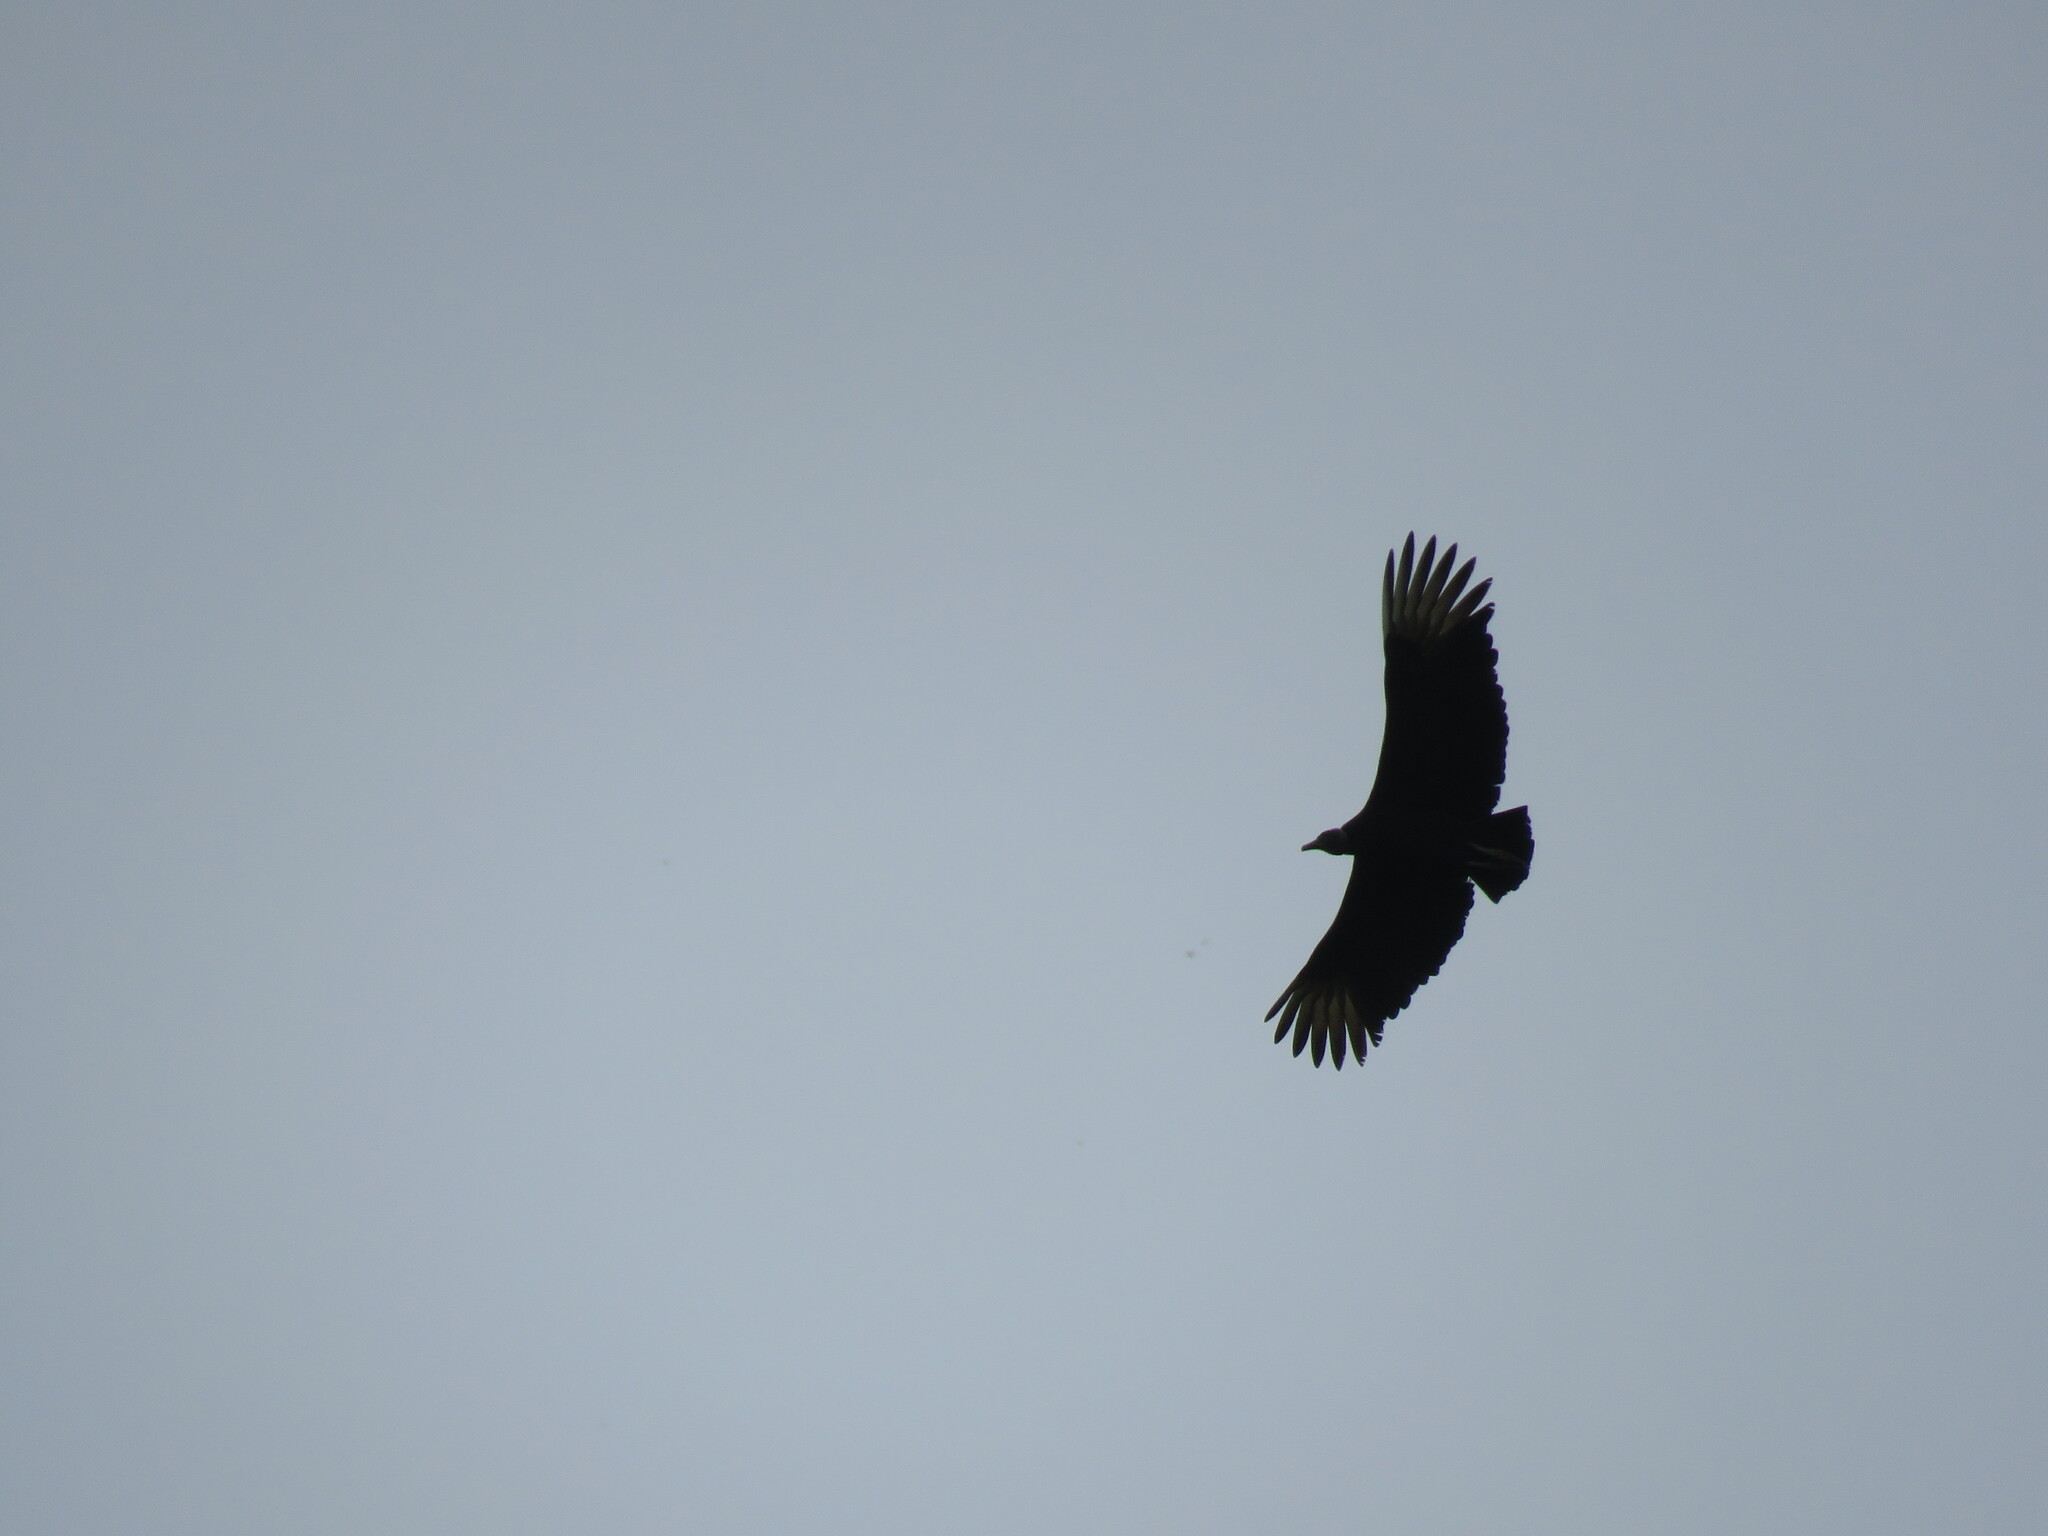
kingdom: Animalia
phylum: Chordata
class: Aves
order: Accipitriformes
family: Cathartidae
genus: Coragyps
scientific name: Coragyps atratus
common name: Black vulture
